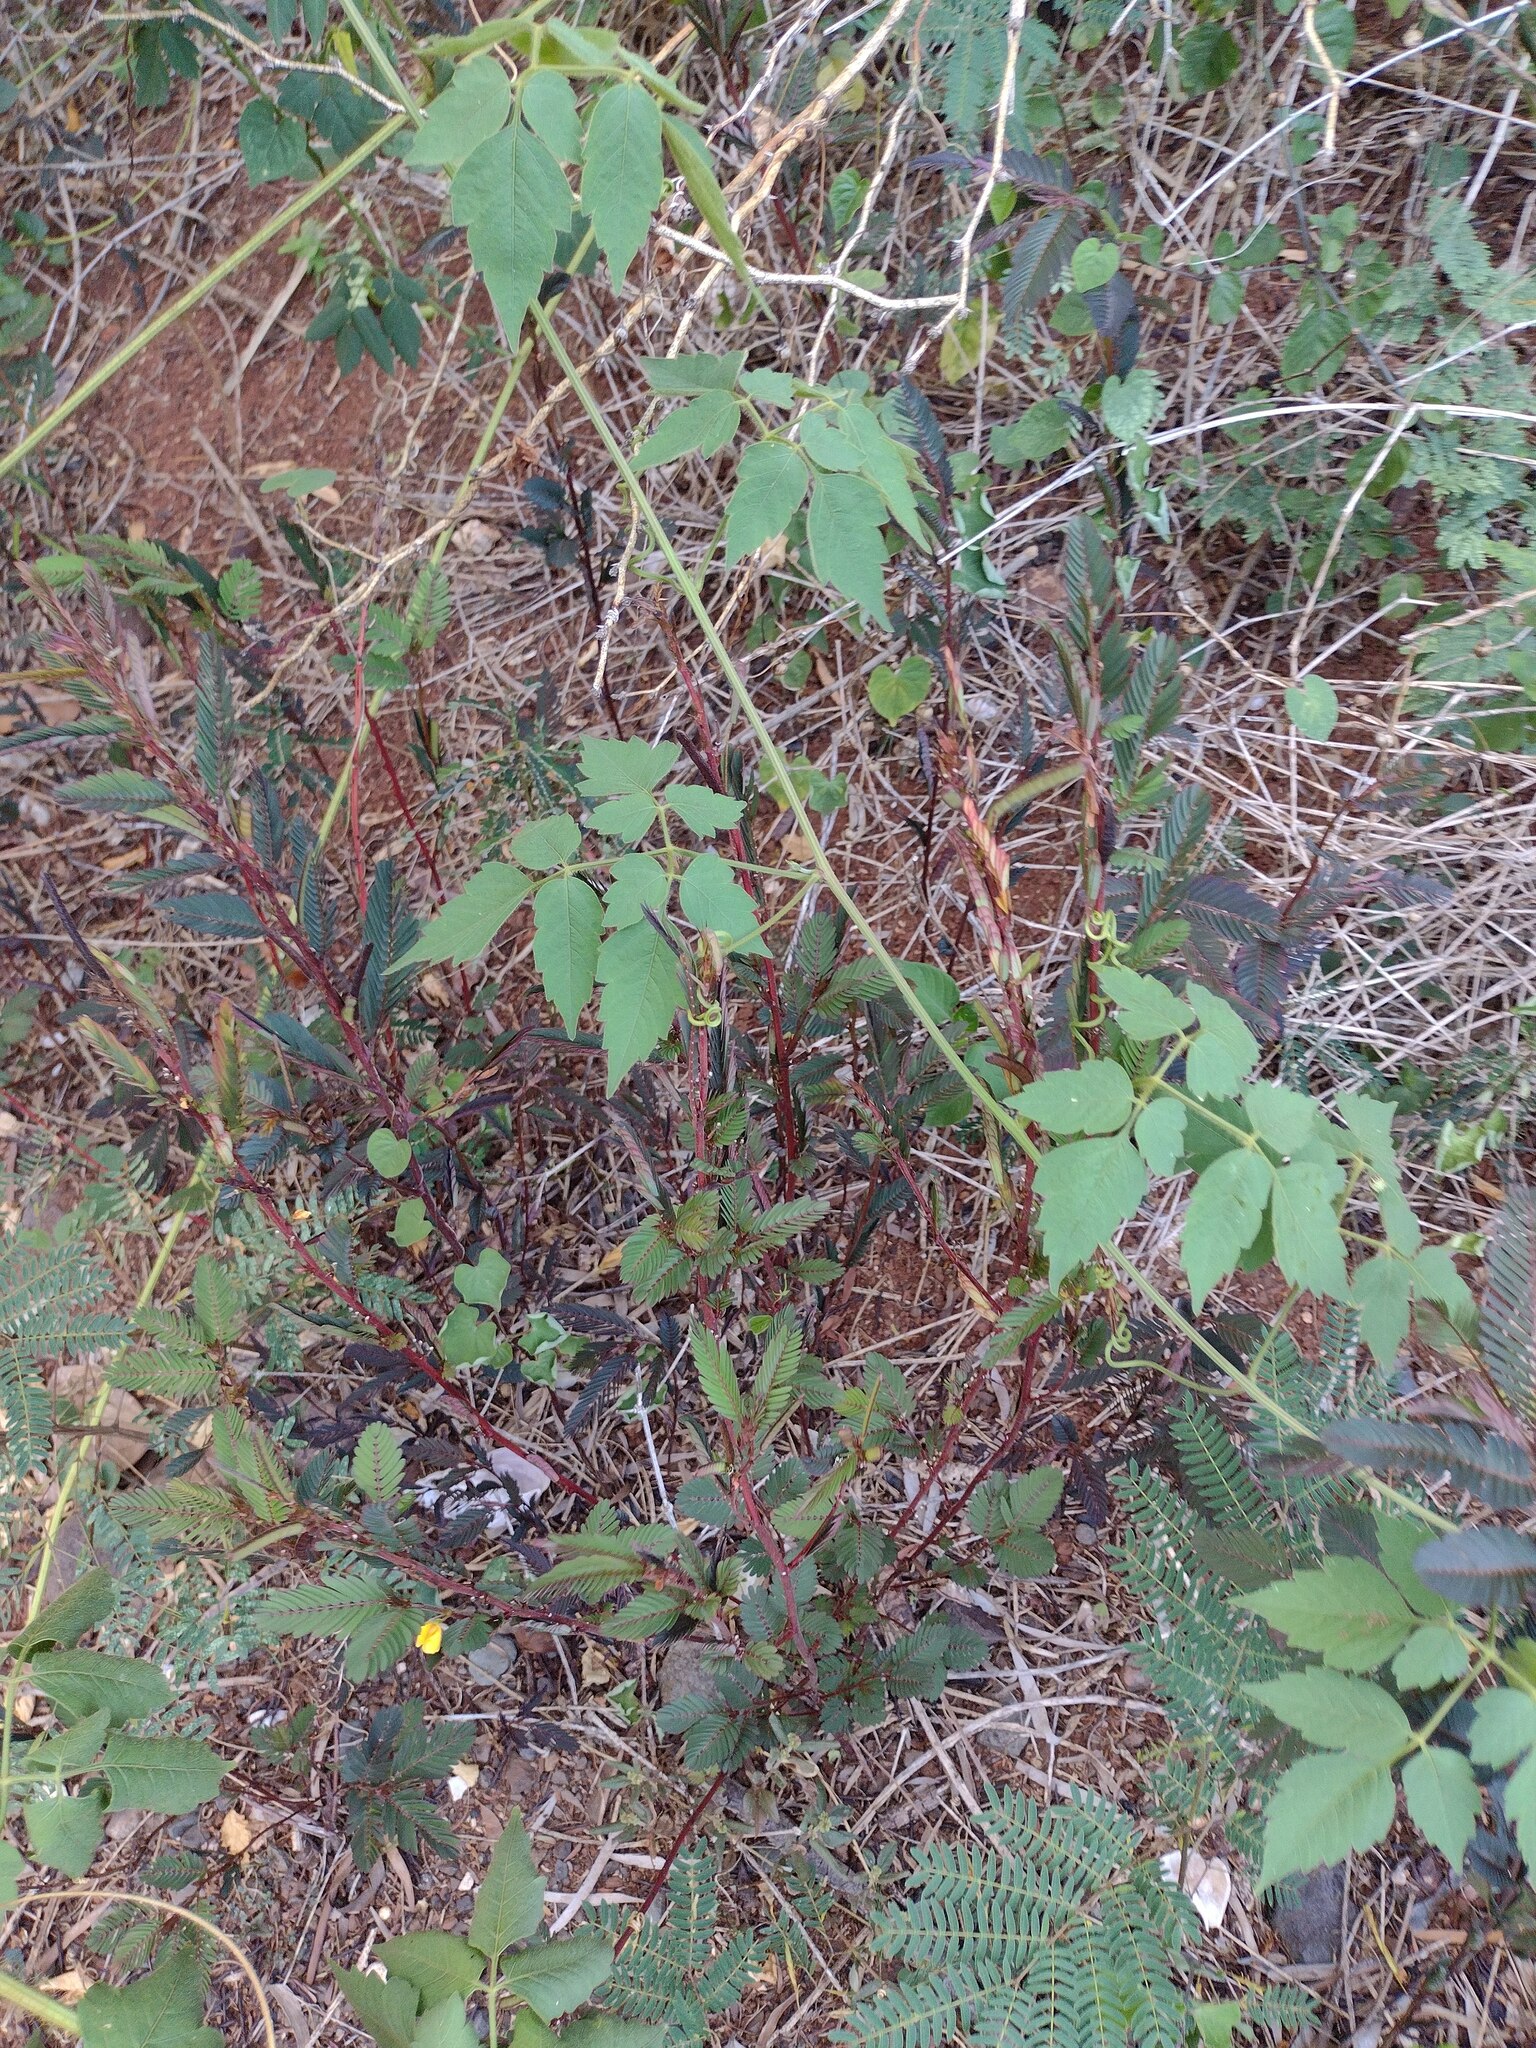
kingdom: Plantae
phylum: Tracheophyta
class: Magnoliopsida
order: Sapindales
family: Sapindaceae
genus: Cardiospermum
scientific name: Cardiospermum grandiflorum
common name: Balloon vine
